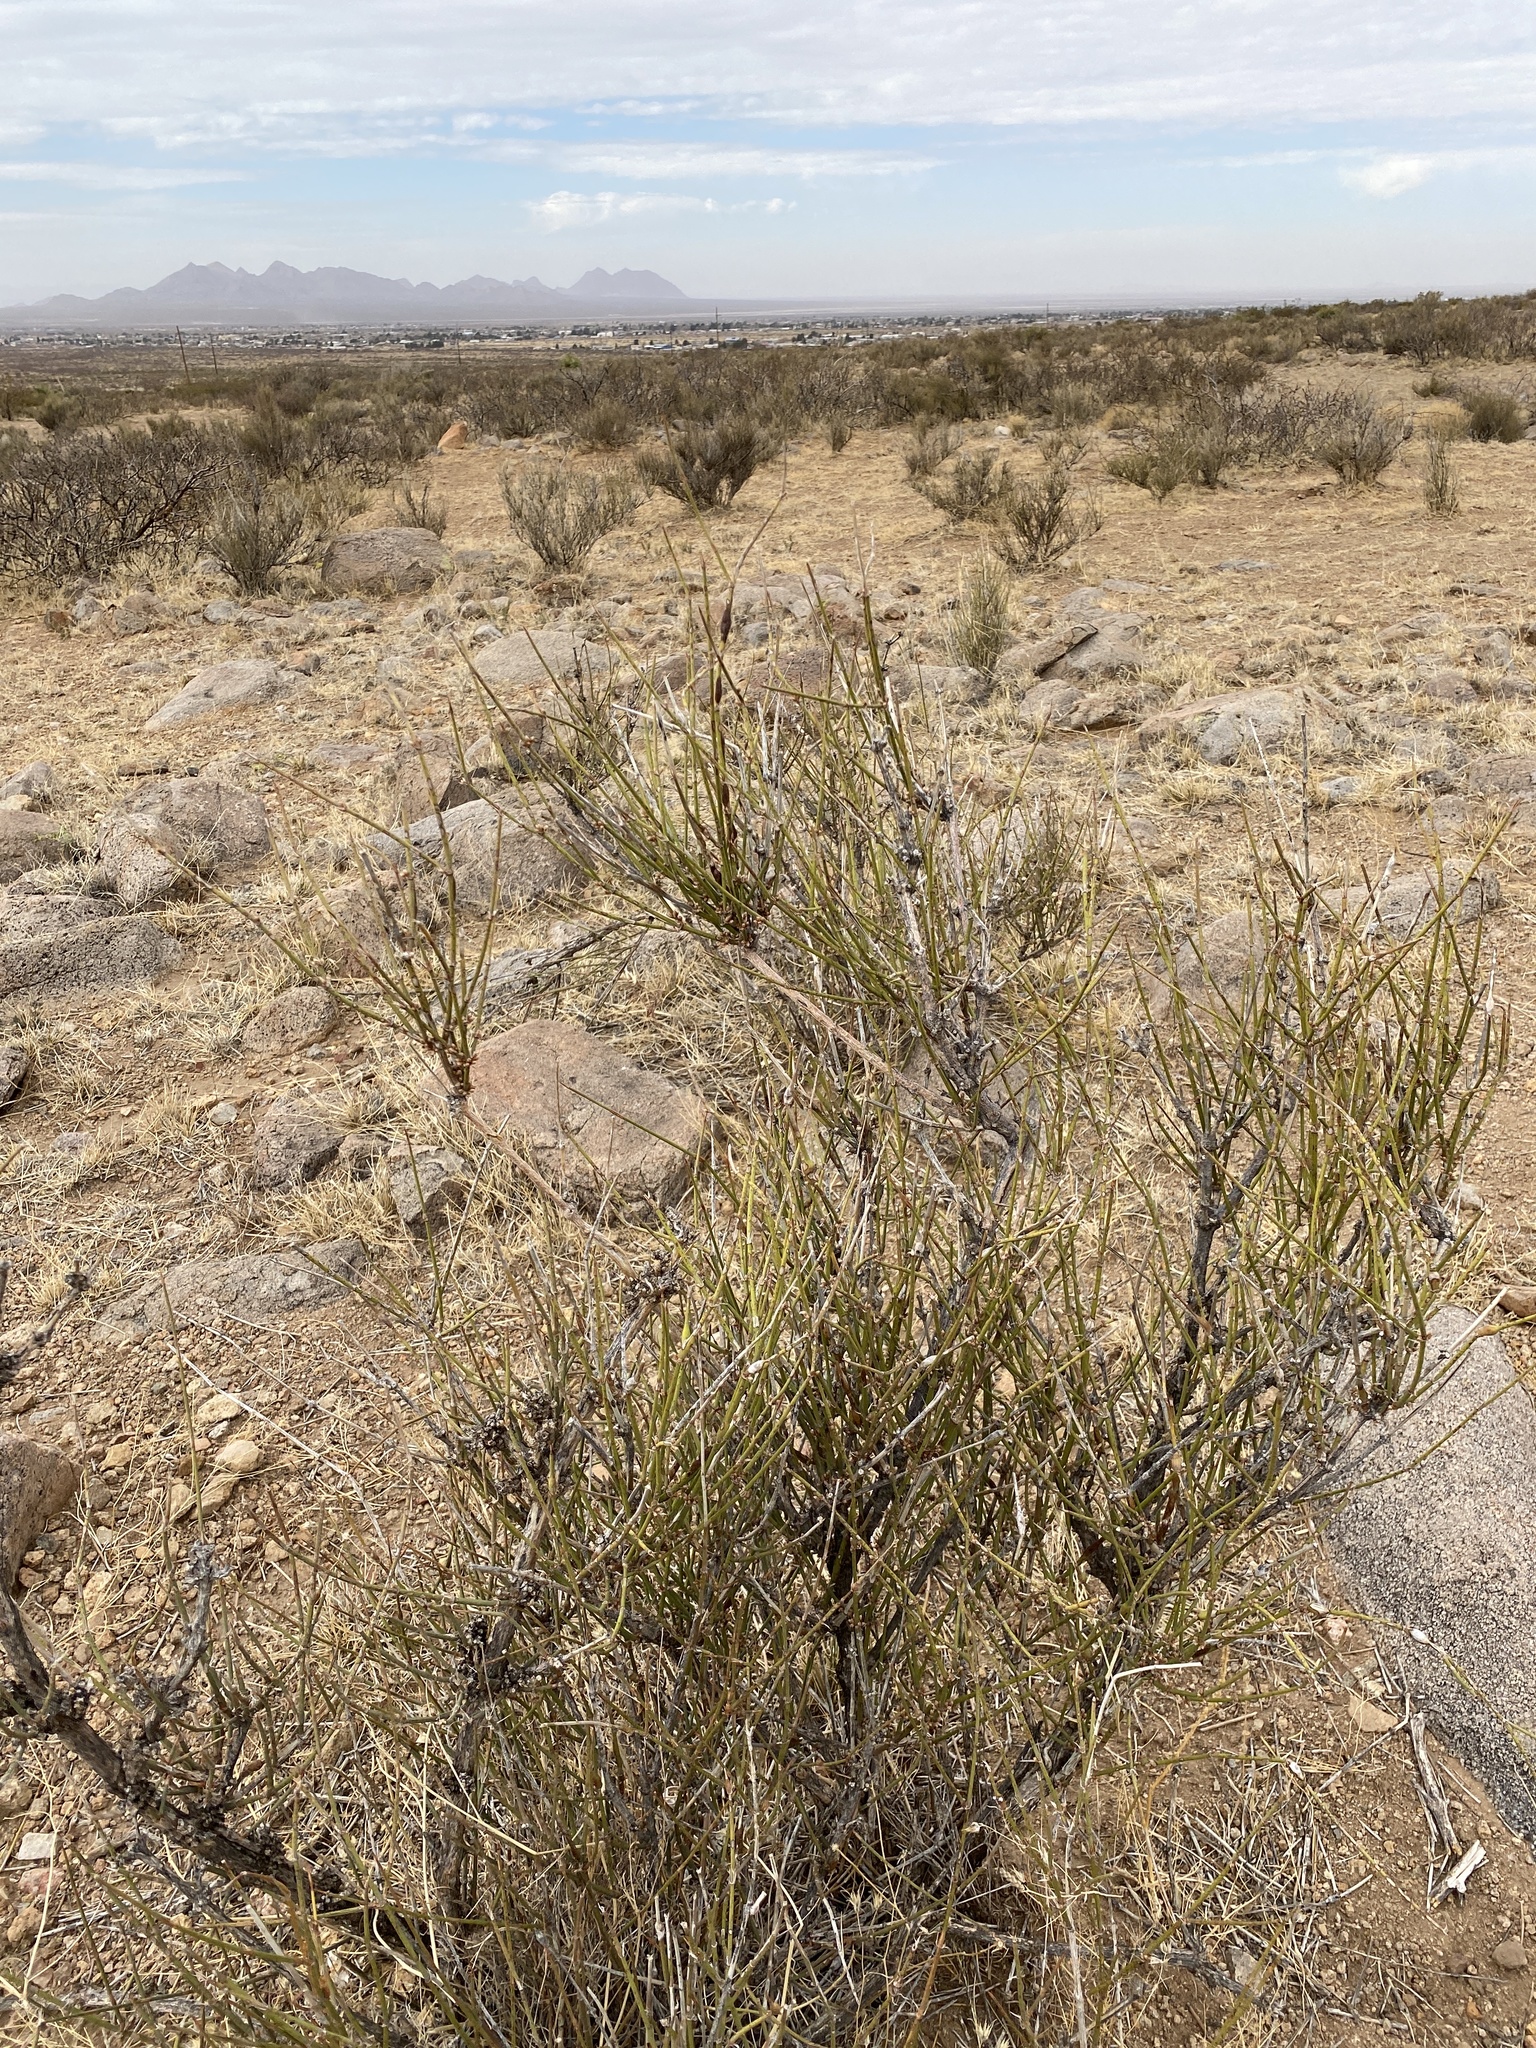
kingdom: Plantae
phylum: Tracheophyta
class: Gnetopsida
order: Ephedrales
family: Ephedraceae
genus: Ephedra
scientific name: Ephedra trifurca
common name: Mexican-tea
